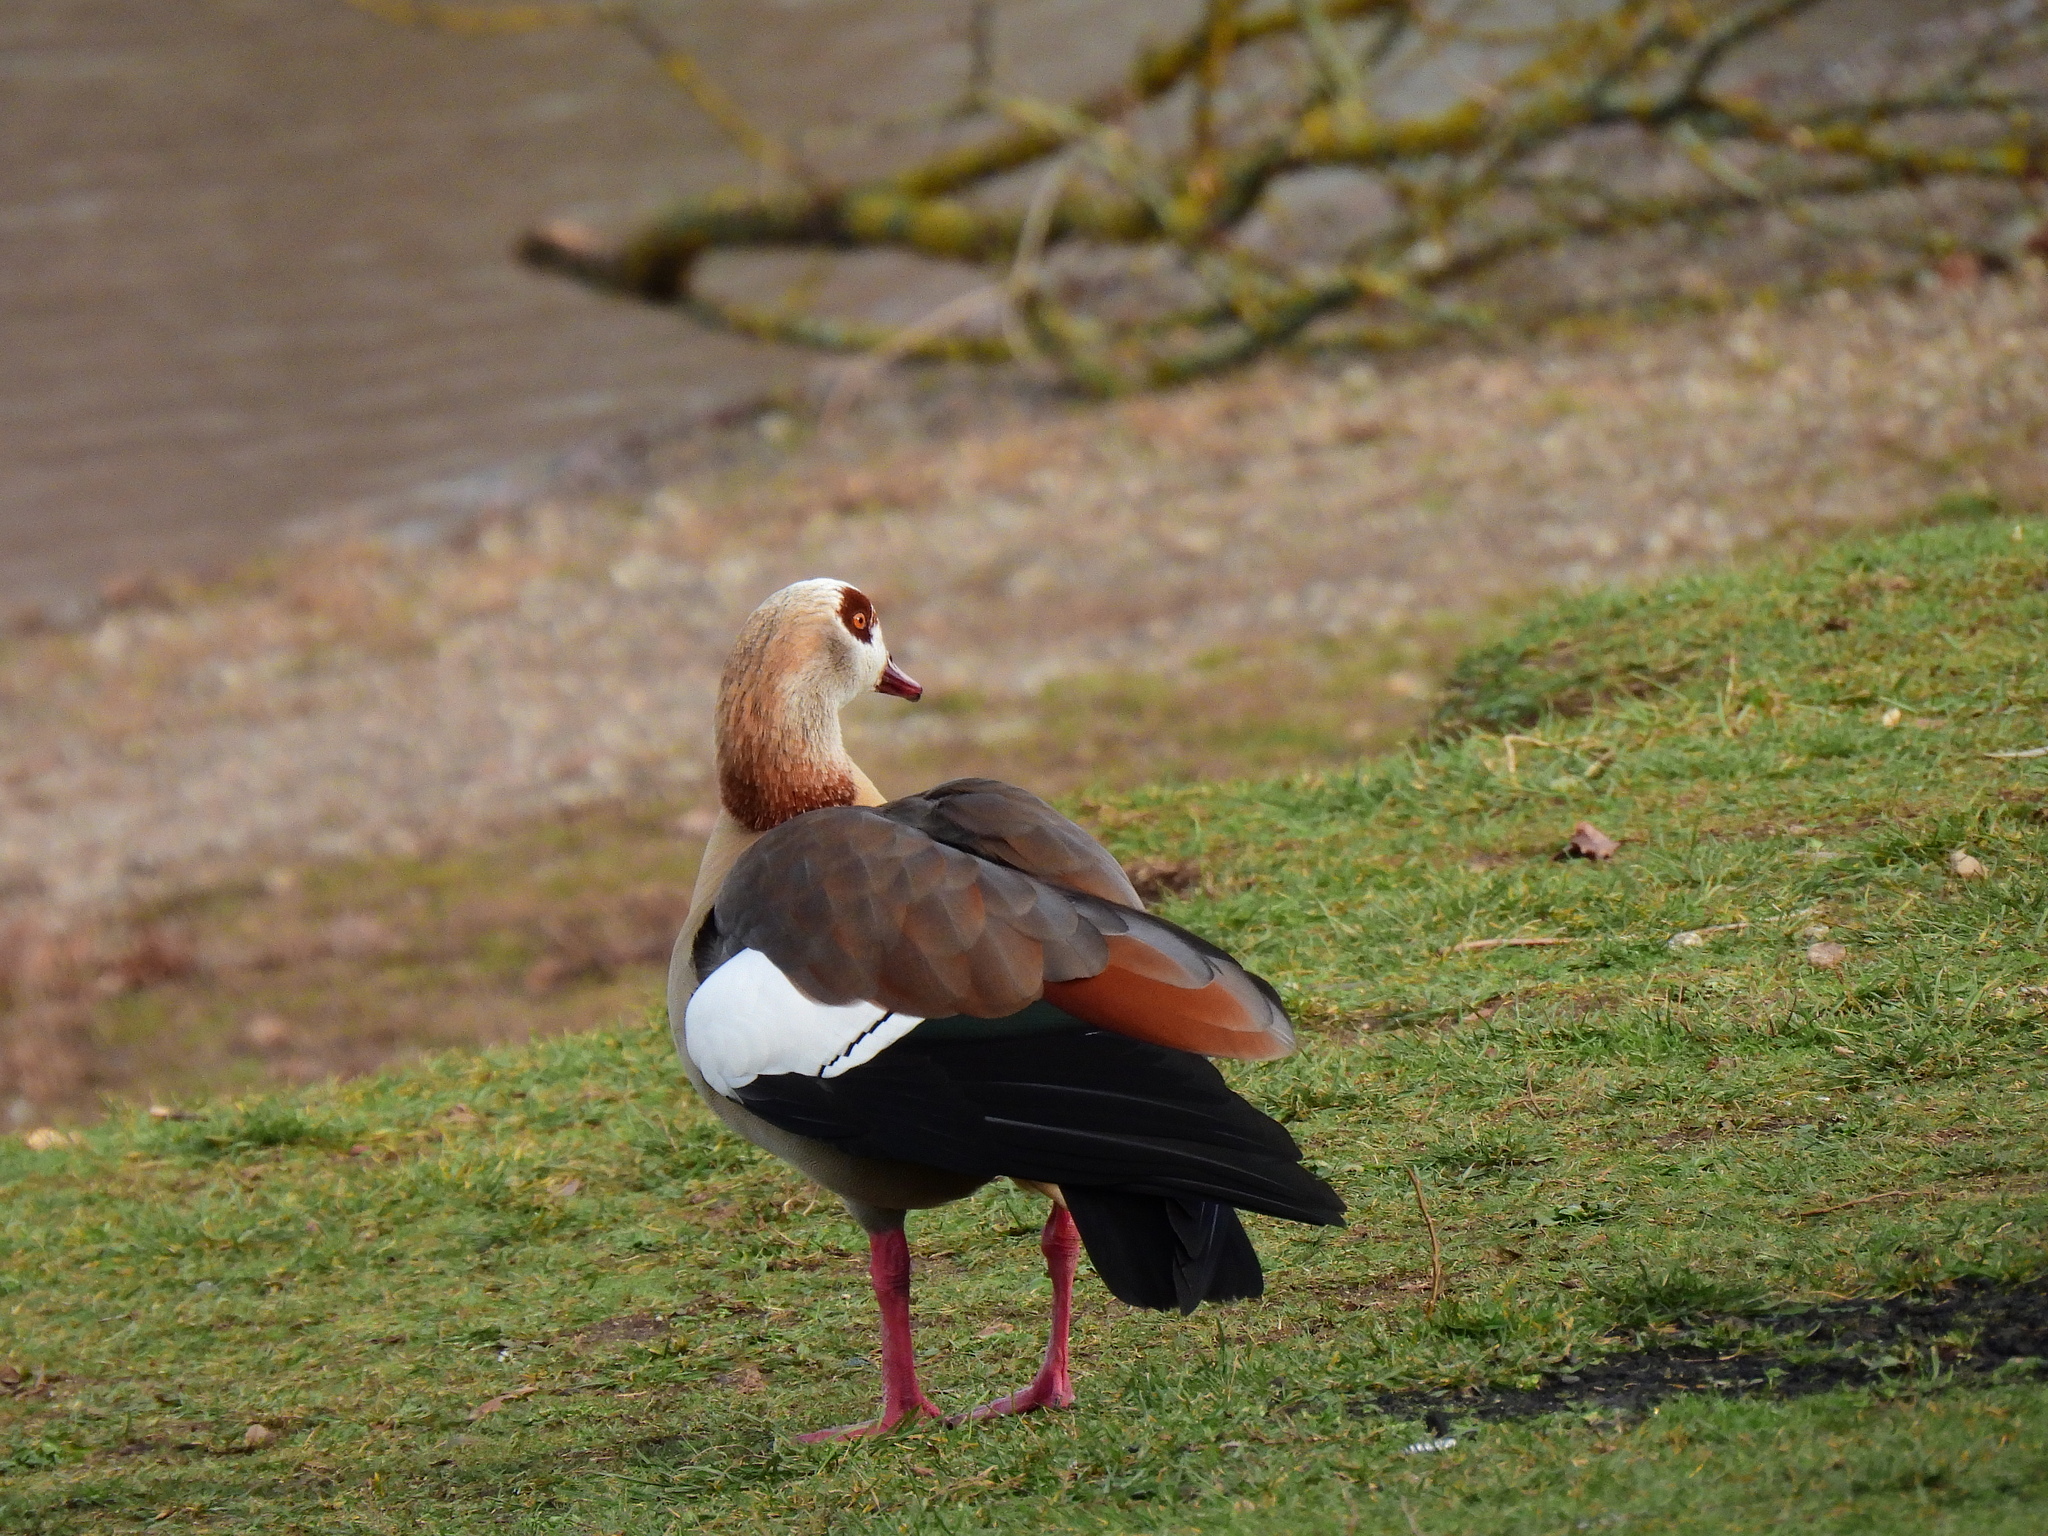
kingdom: Animalia
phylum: Chordata
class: Aves
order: Anseriformes
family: Anatidae
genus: Alopochen
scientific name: Alopochen aegyptiaca
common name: Egyptian goose
